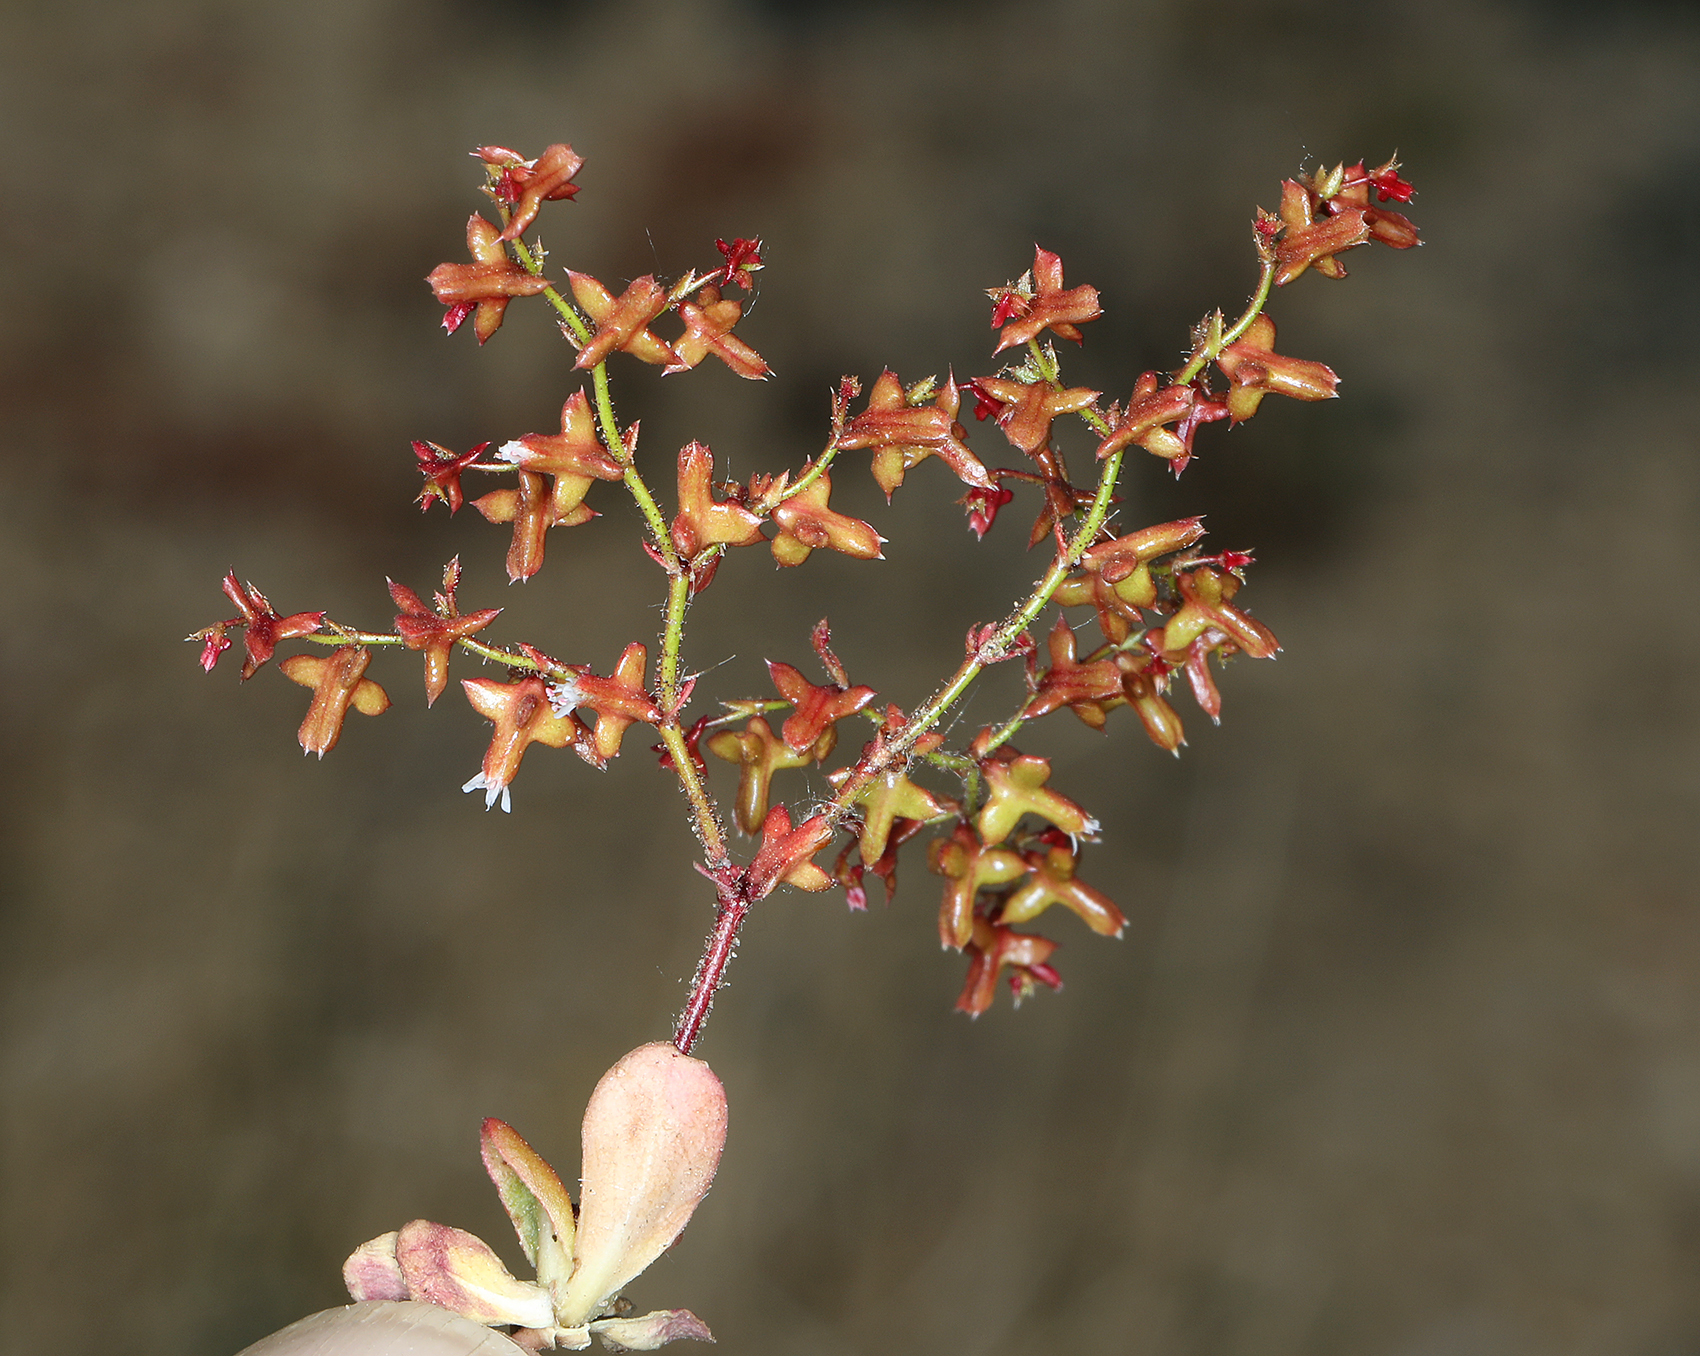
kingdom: Plantae
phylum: Tracheophyta
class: Magnoliopsida
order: Caryophyllales
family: Polygonaceae
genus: Centrostegia
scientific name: Centrostegia thurberi
